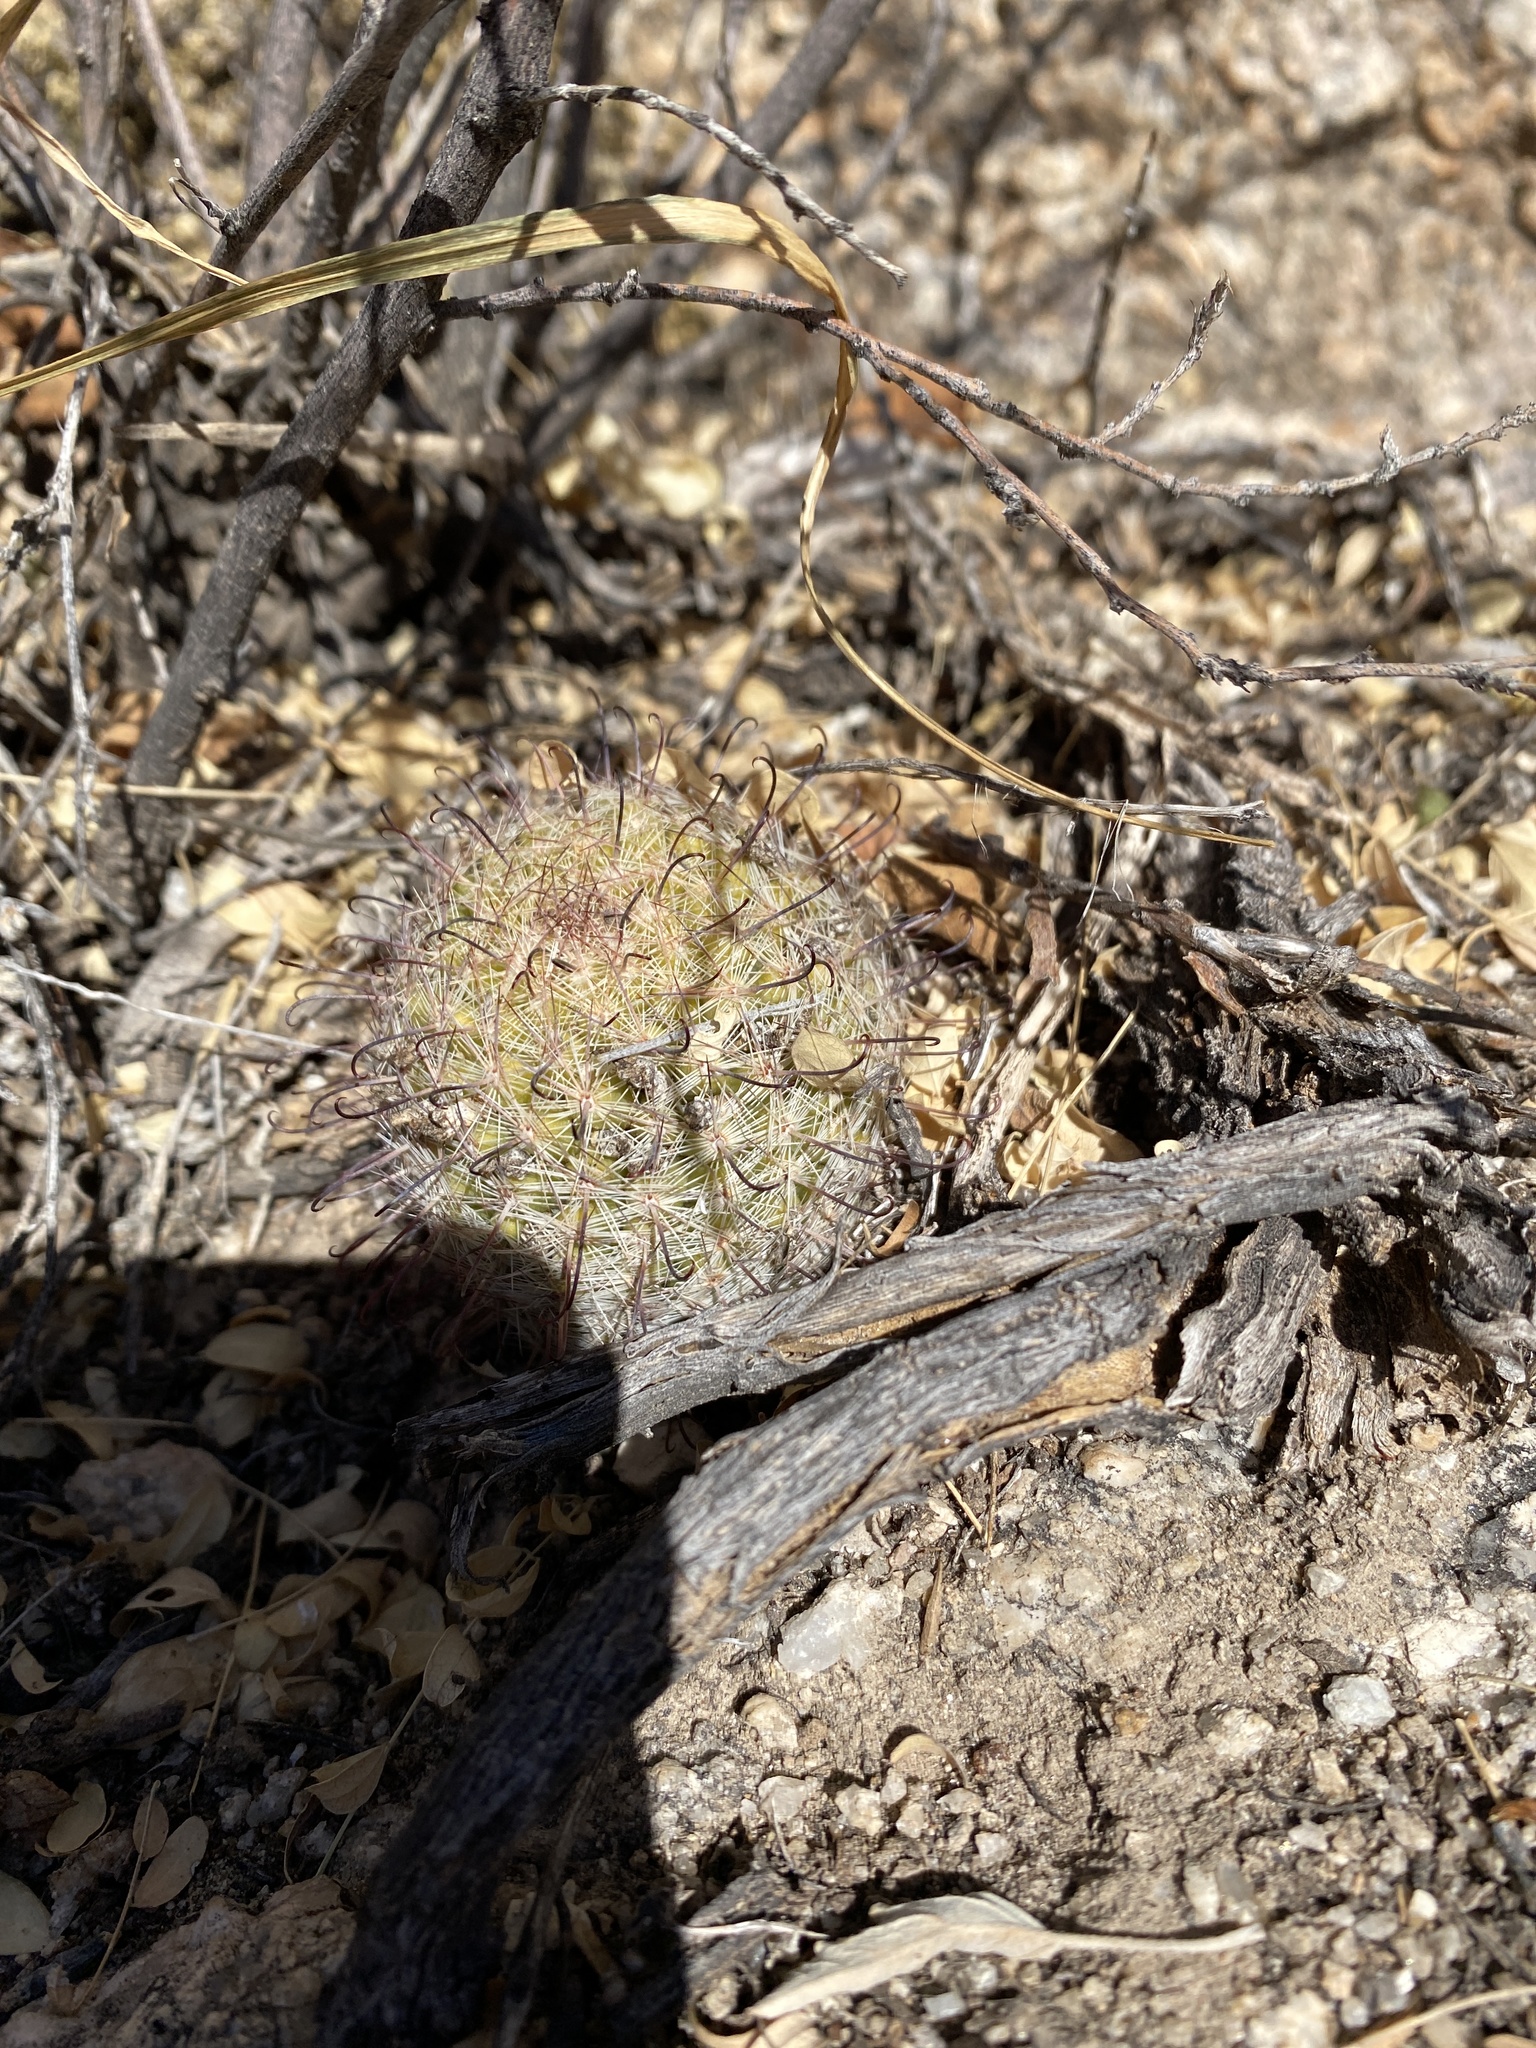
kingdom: Plantae
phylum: Tracheophyta
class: Magnoliopsida
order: Caryophyllales
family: Cactaceae
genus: Cochemiea
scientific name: Cochemiea grahamii
